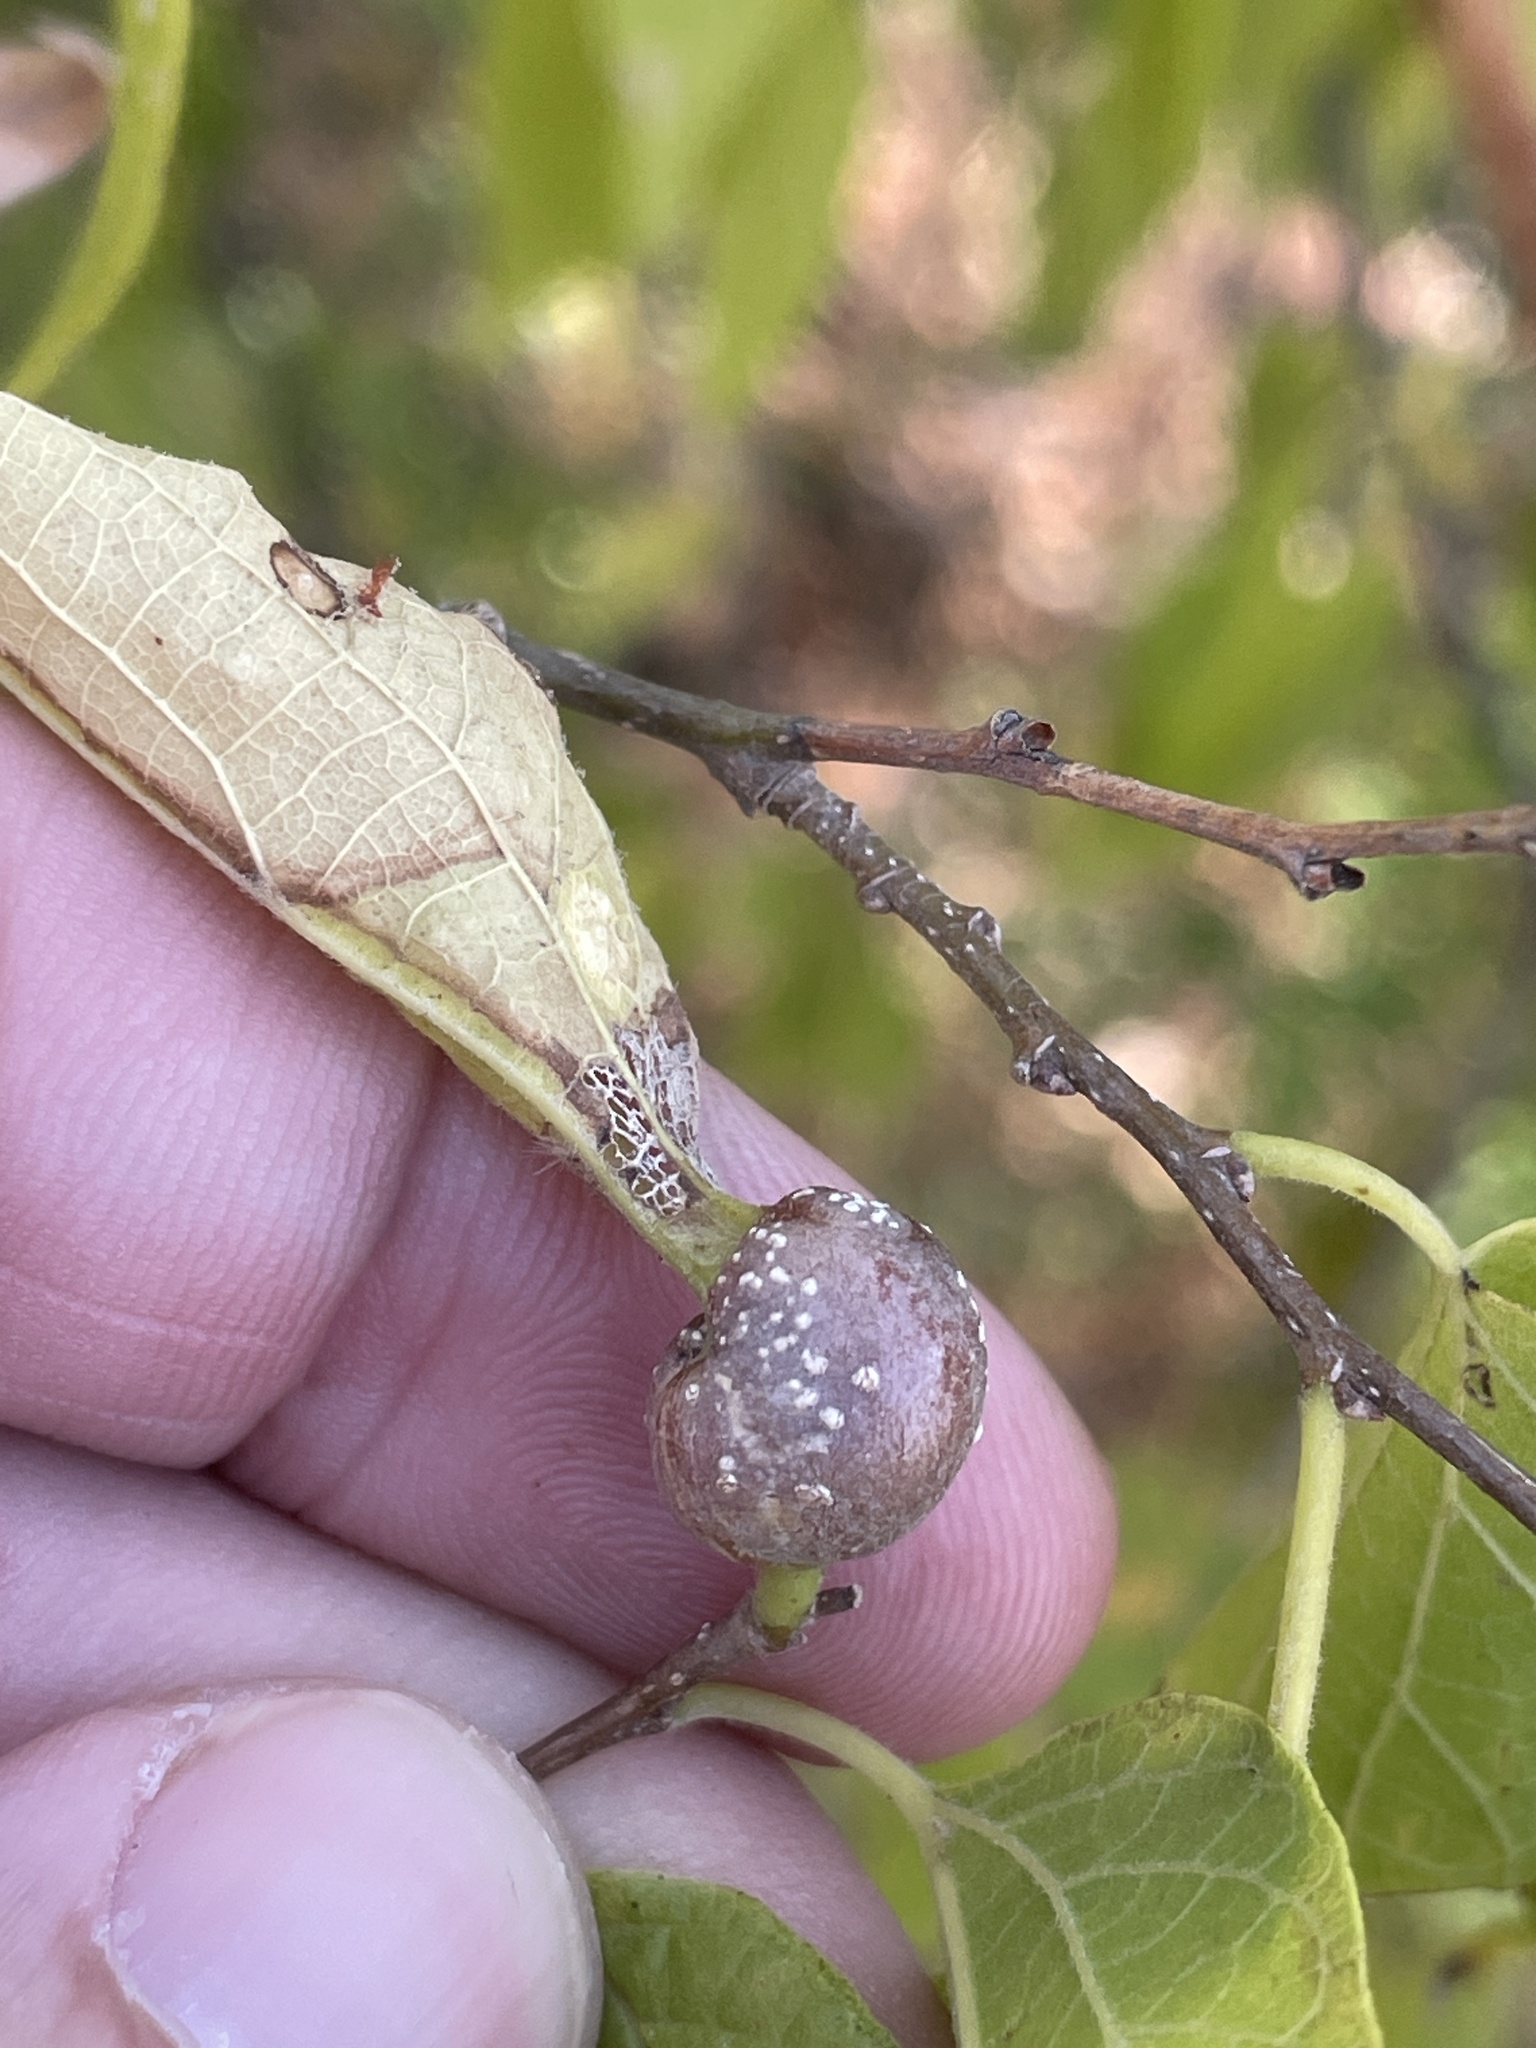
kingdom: Animalia
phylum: Arthropoda
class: Insecta
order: Hemiptera
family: Aphalaridae
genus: Pachypsylla
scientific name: Pachypsylla venusta
